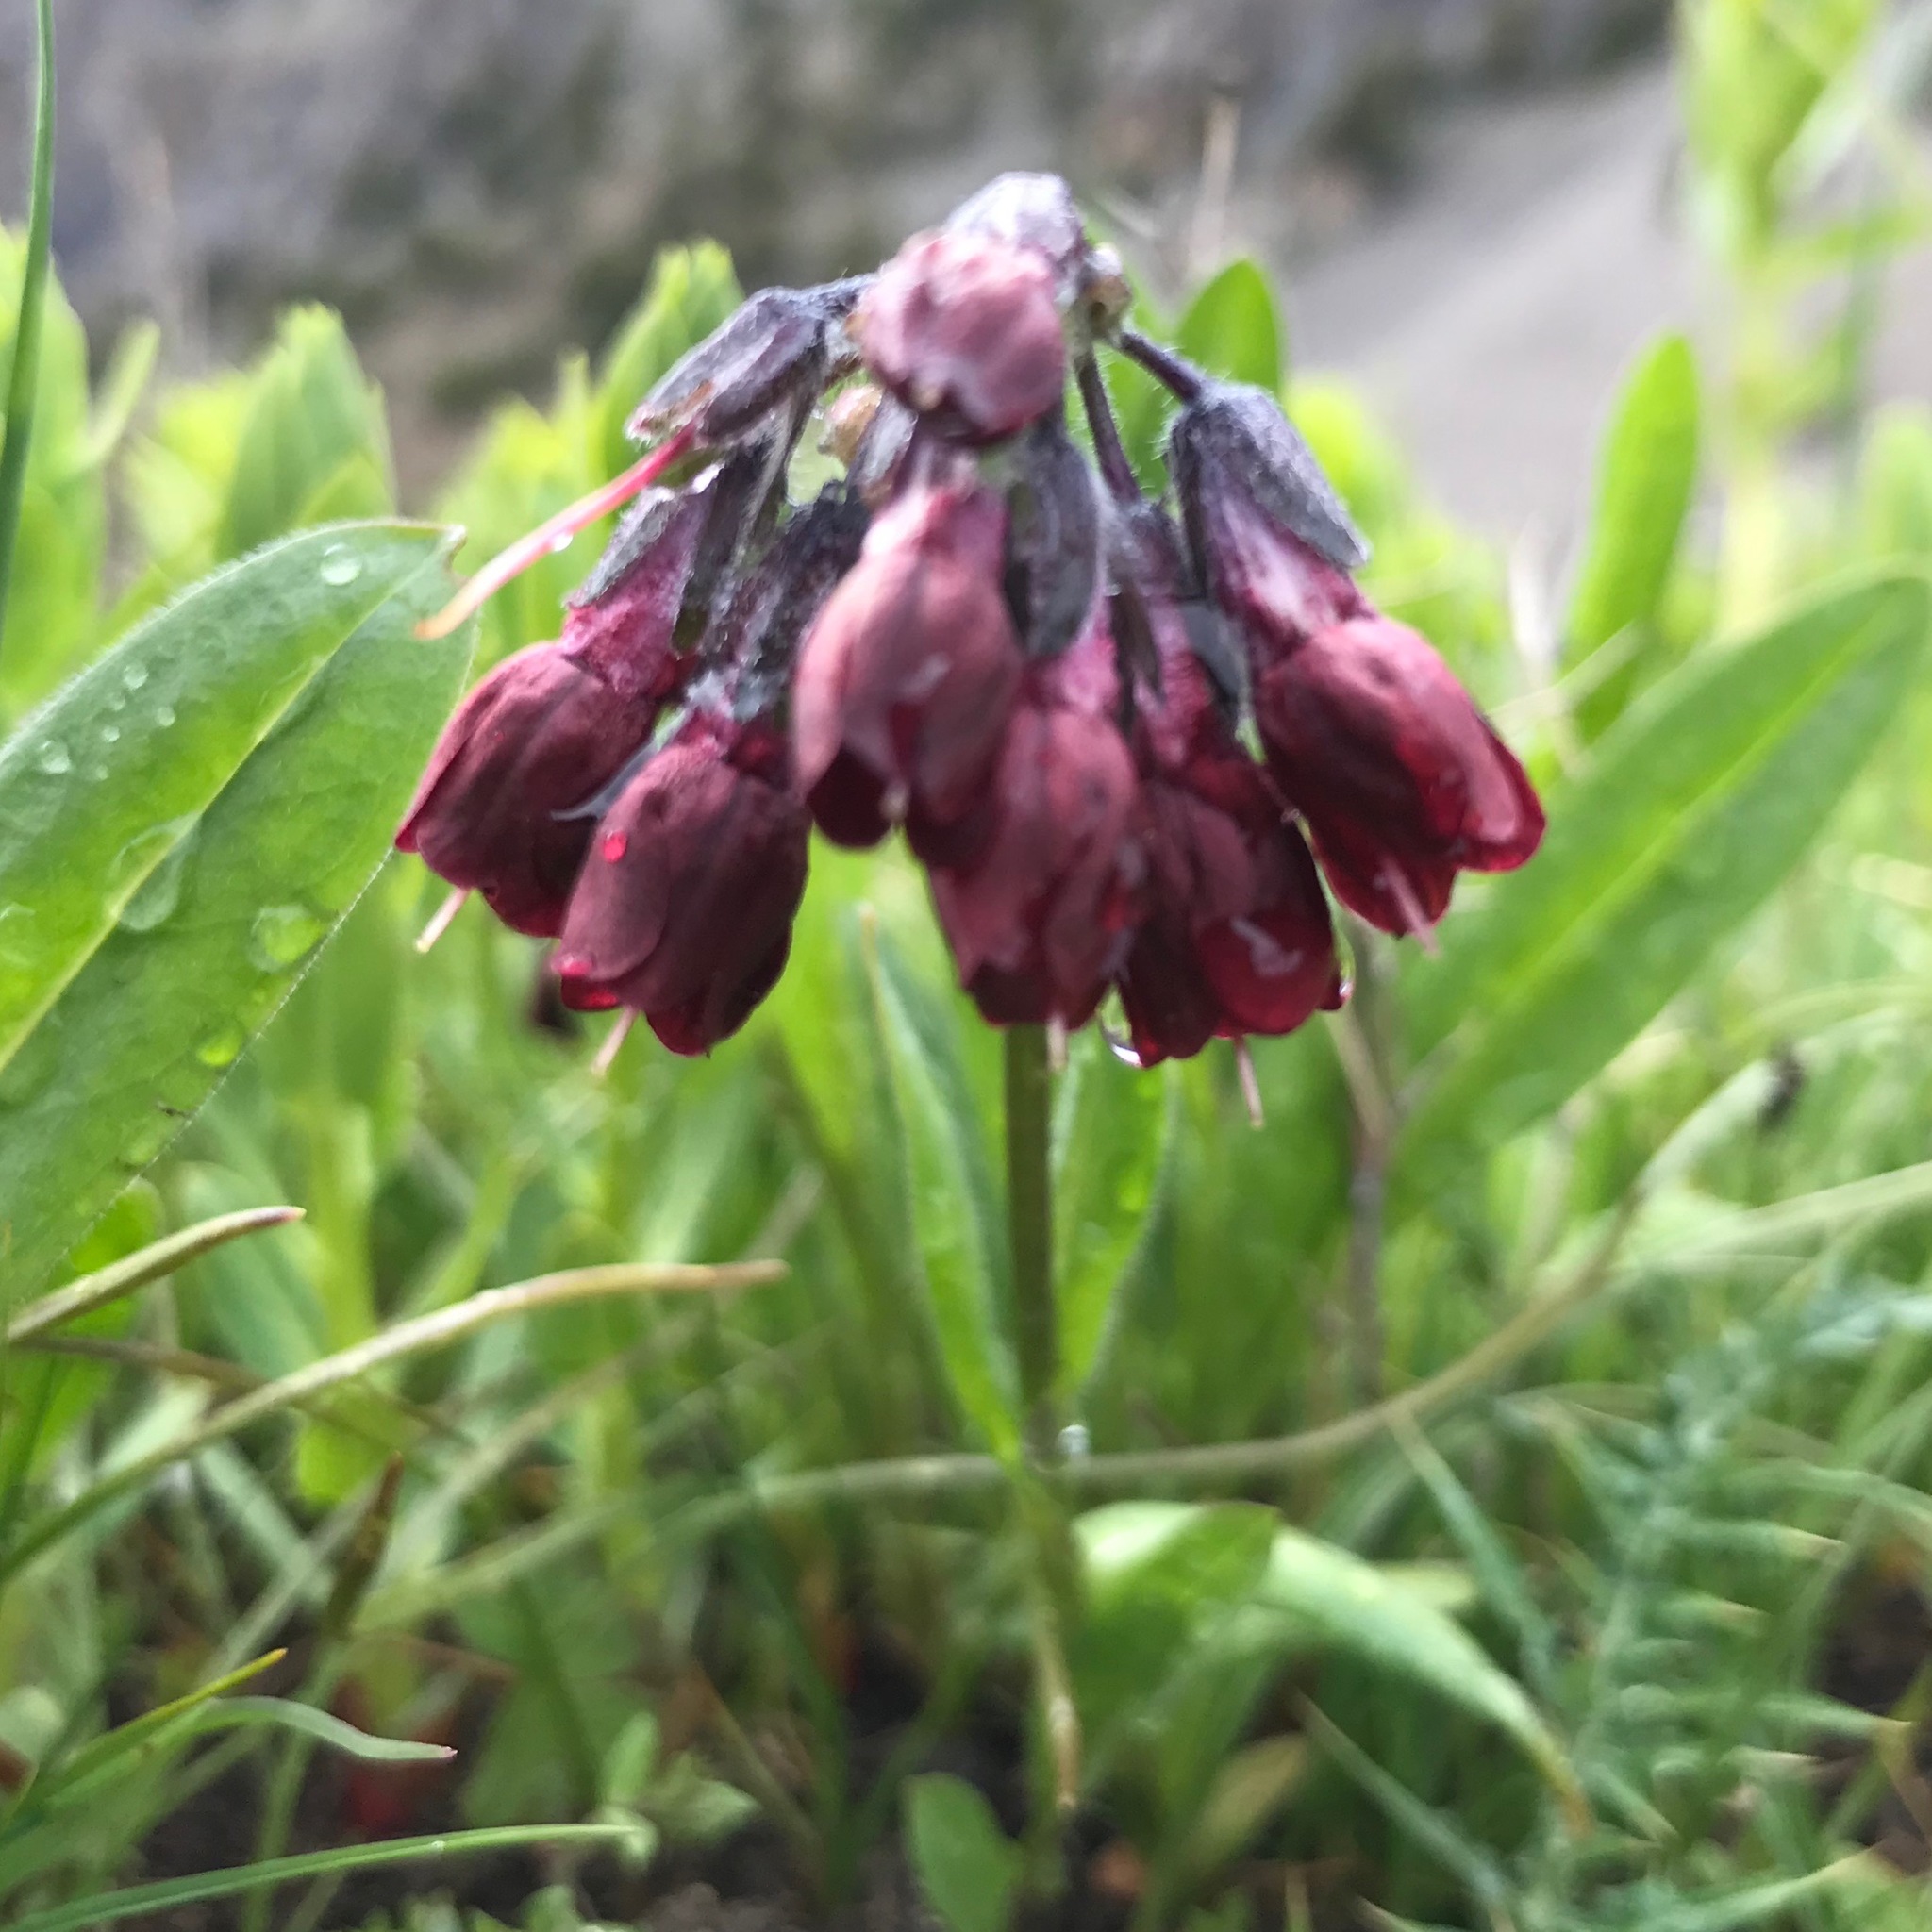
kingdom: Plantae
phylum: Tracheophyta
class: Magnoliopsida
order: Boraginales
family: Boraginaceae
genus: Lindelofia
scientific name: Lindelofia olgae
